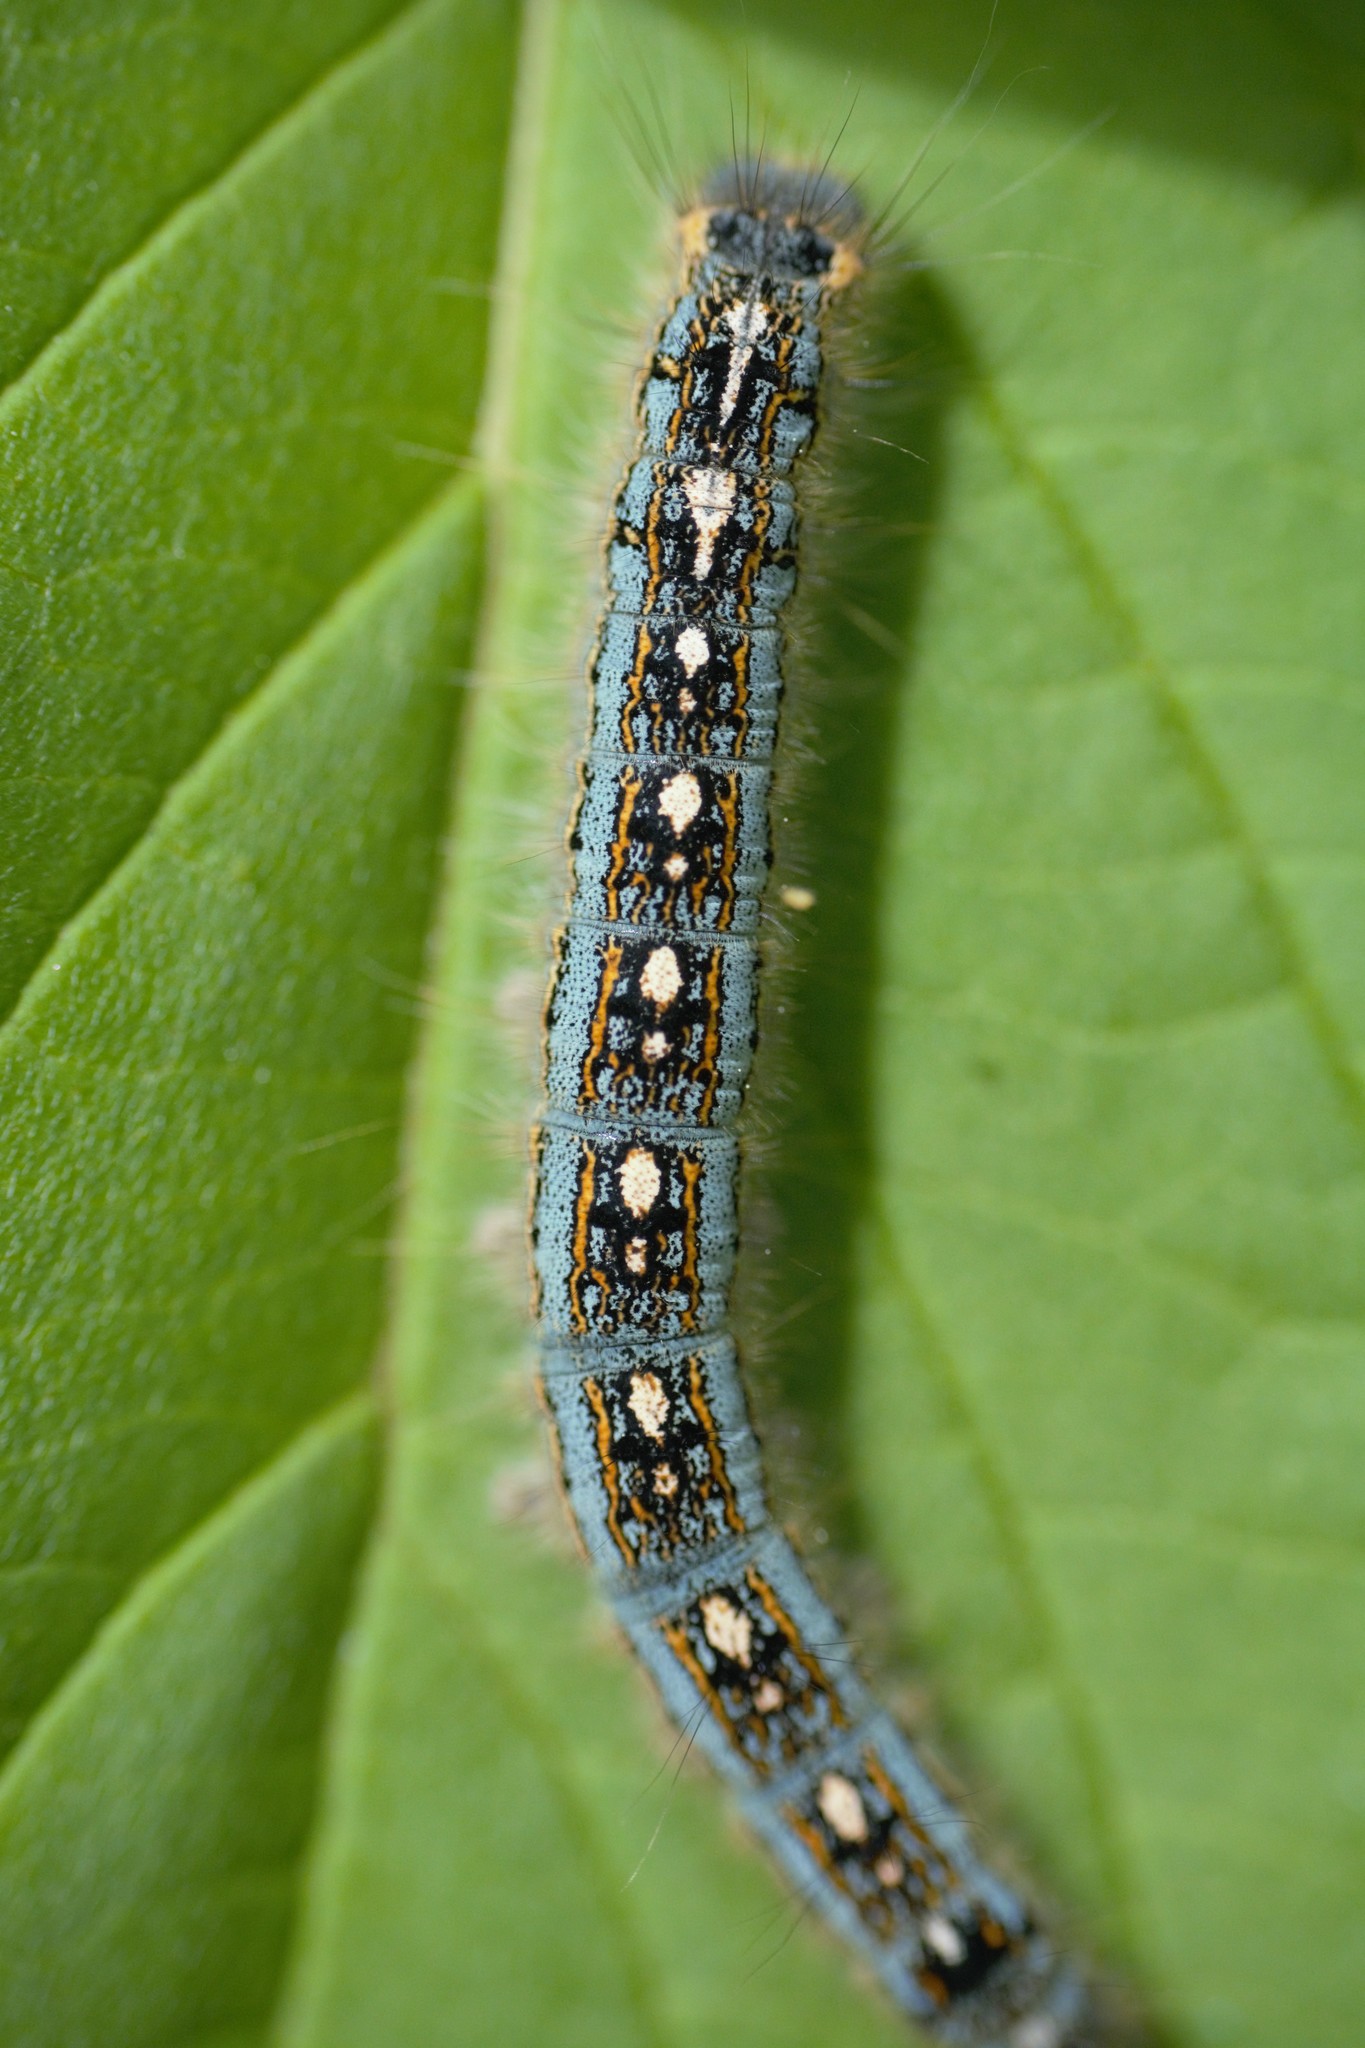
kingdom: Animalia
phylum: Arthropoda
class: Insecta
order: Lepidoptera
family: Lasiocampidae
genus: Malacosoma
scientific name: Malacosoma disstria
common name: Forest tent caterpillar
